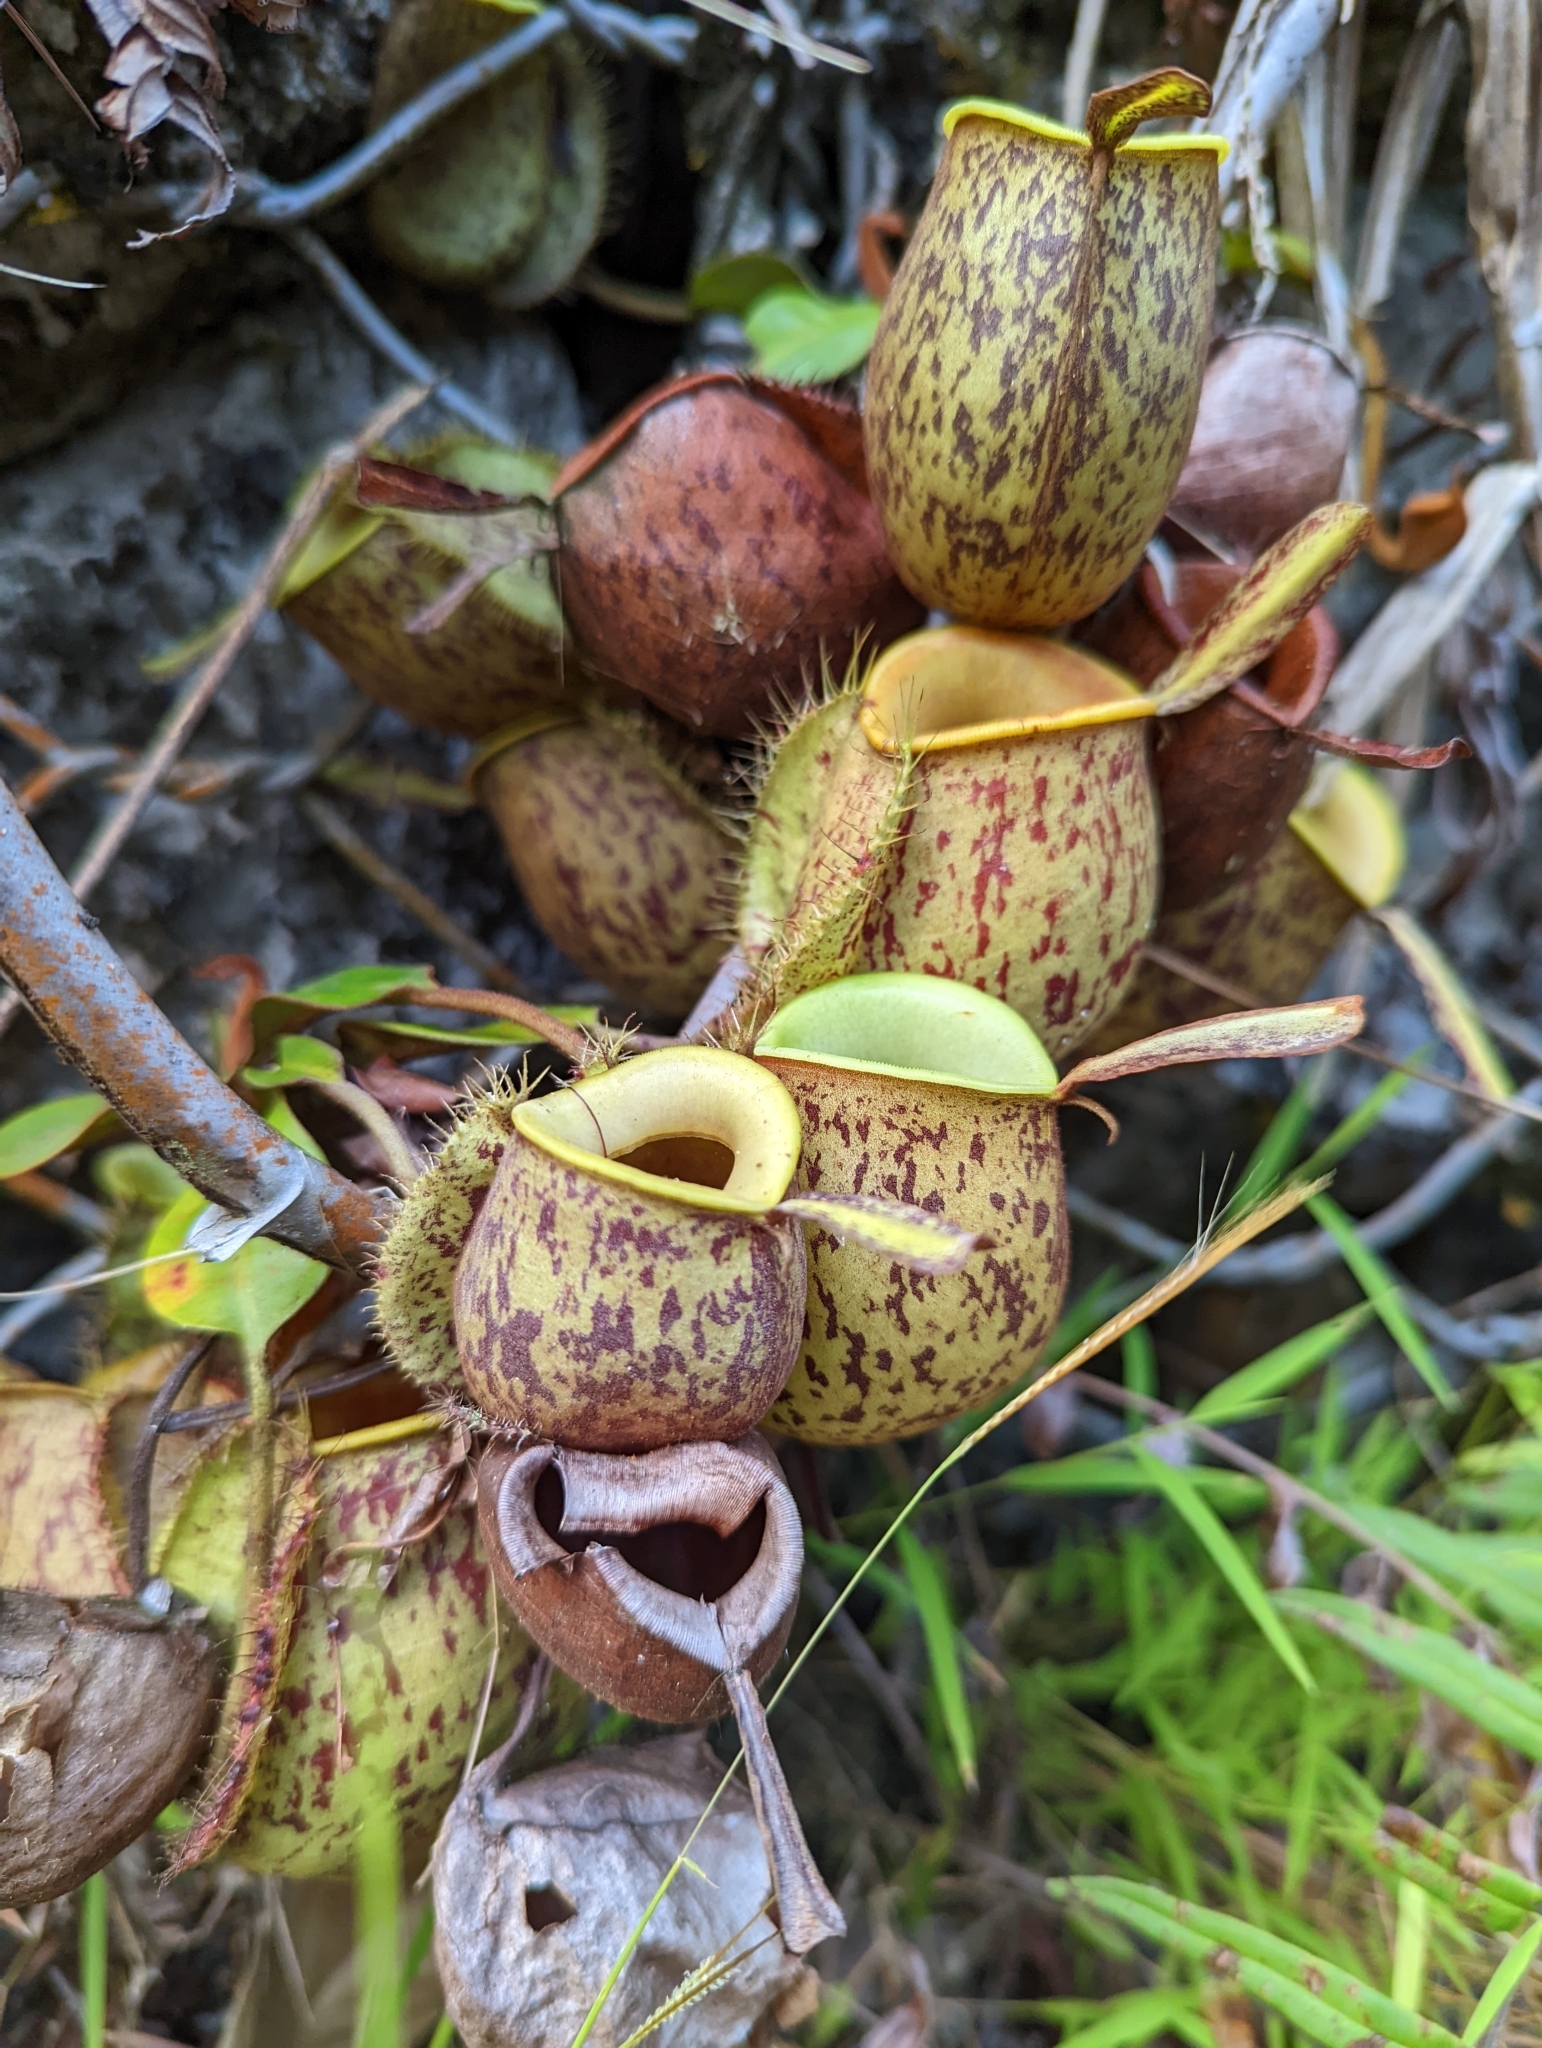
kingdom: Plantae
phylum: Tracheophyta
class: Magnoliopsida
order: Caryophyllales
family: Nepenthaceae
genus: Nepenthes
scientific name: Nepenthes ampullaria
